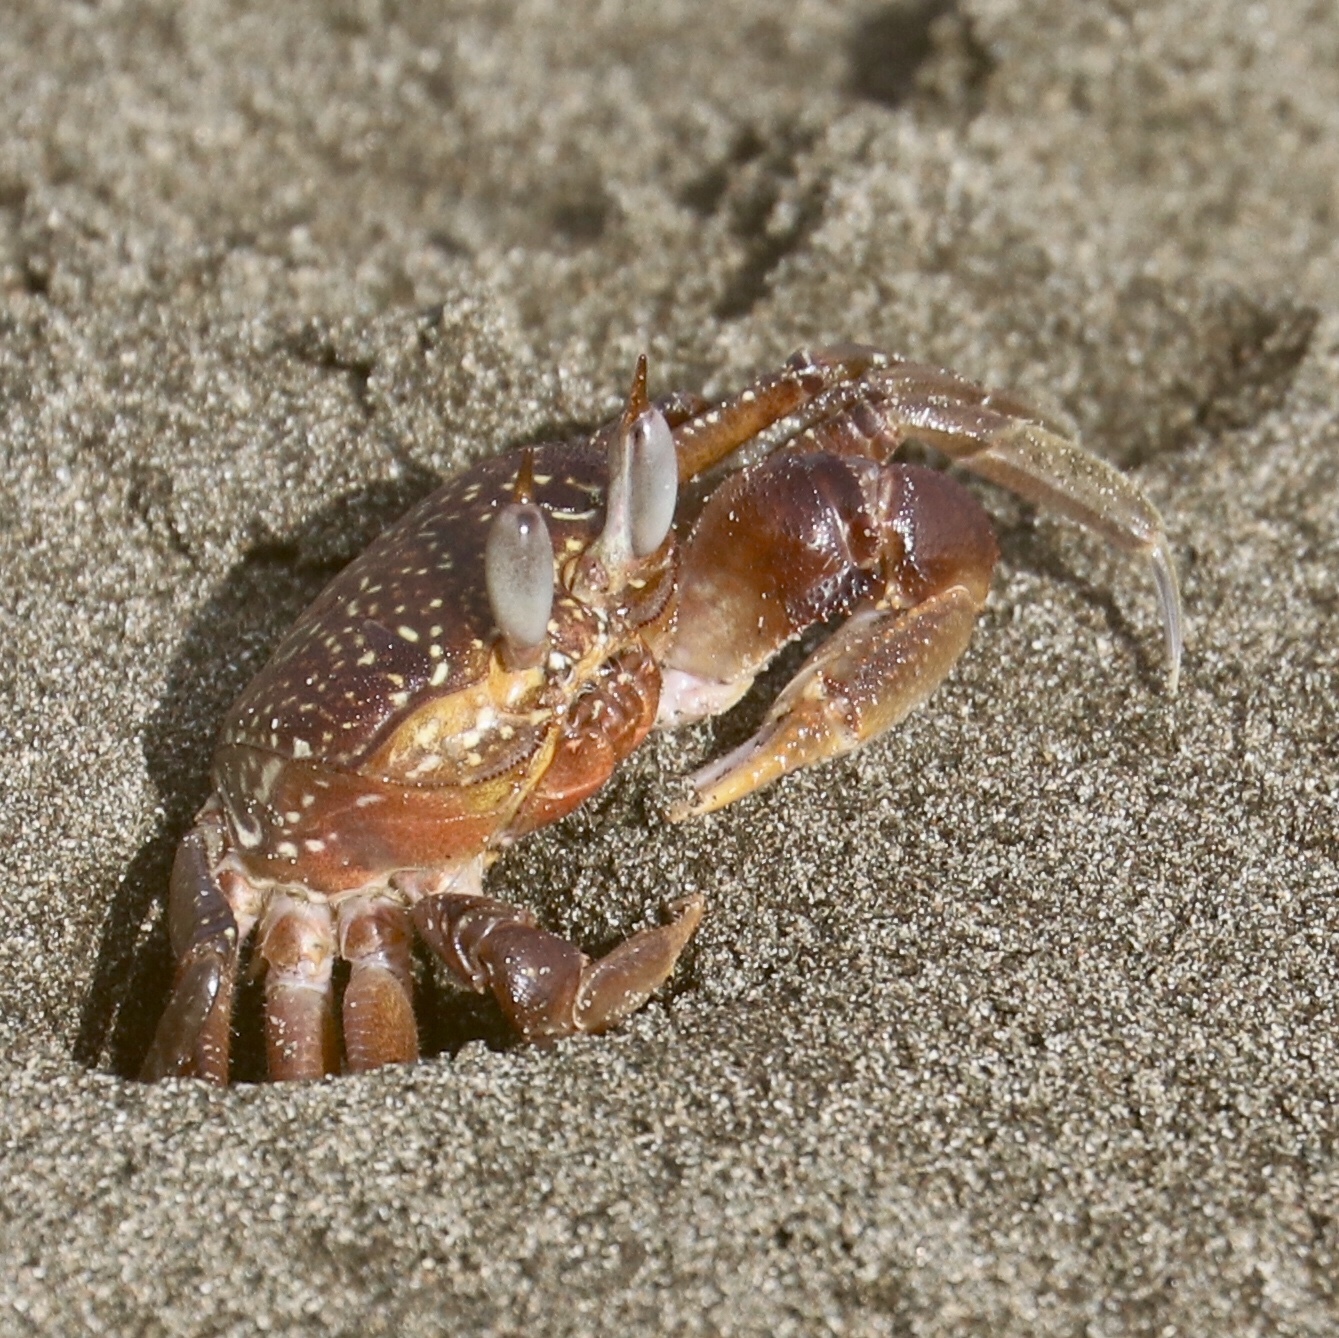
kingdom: Animalia
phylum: Arthropoda
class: Malacostraca
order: Decapoda
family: Ocypodidae
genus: Ocypode
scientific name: Ocypode gaudichaudii
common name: Pacific ghost crab
